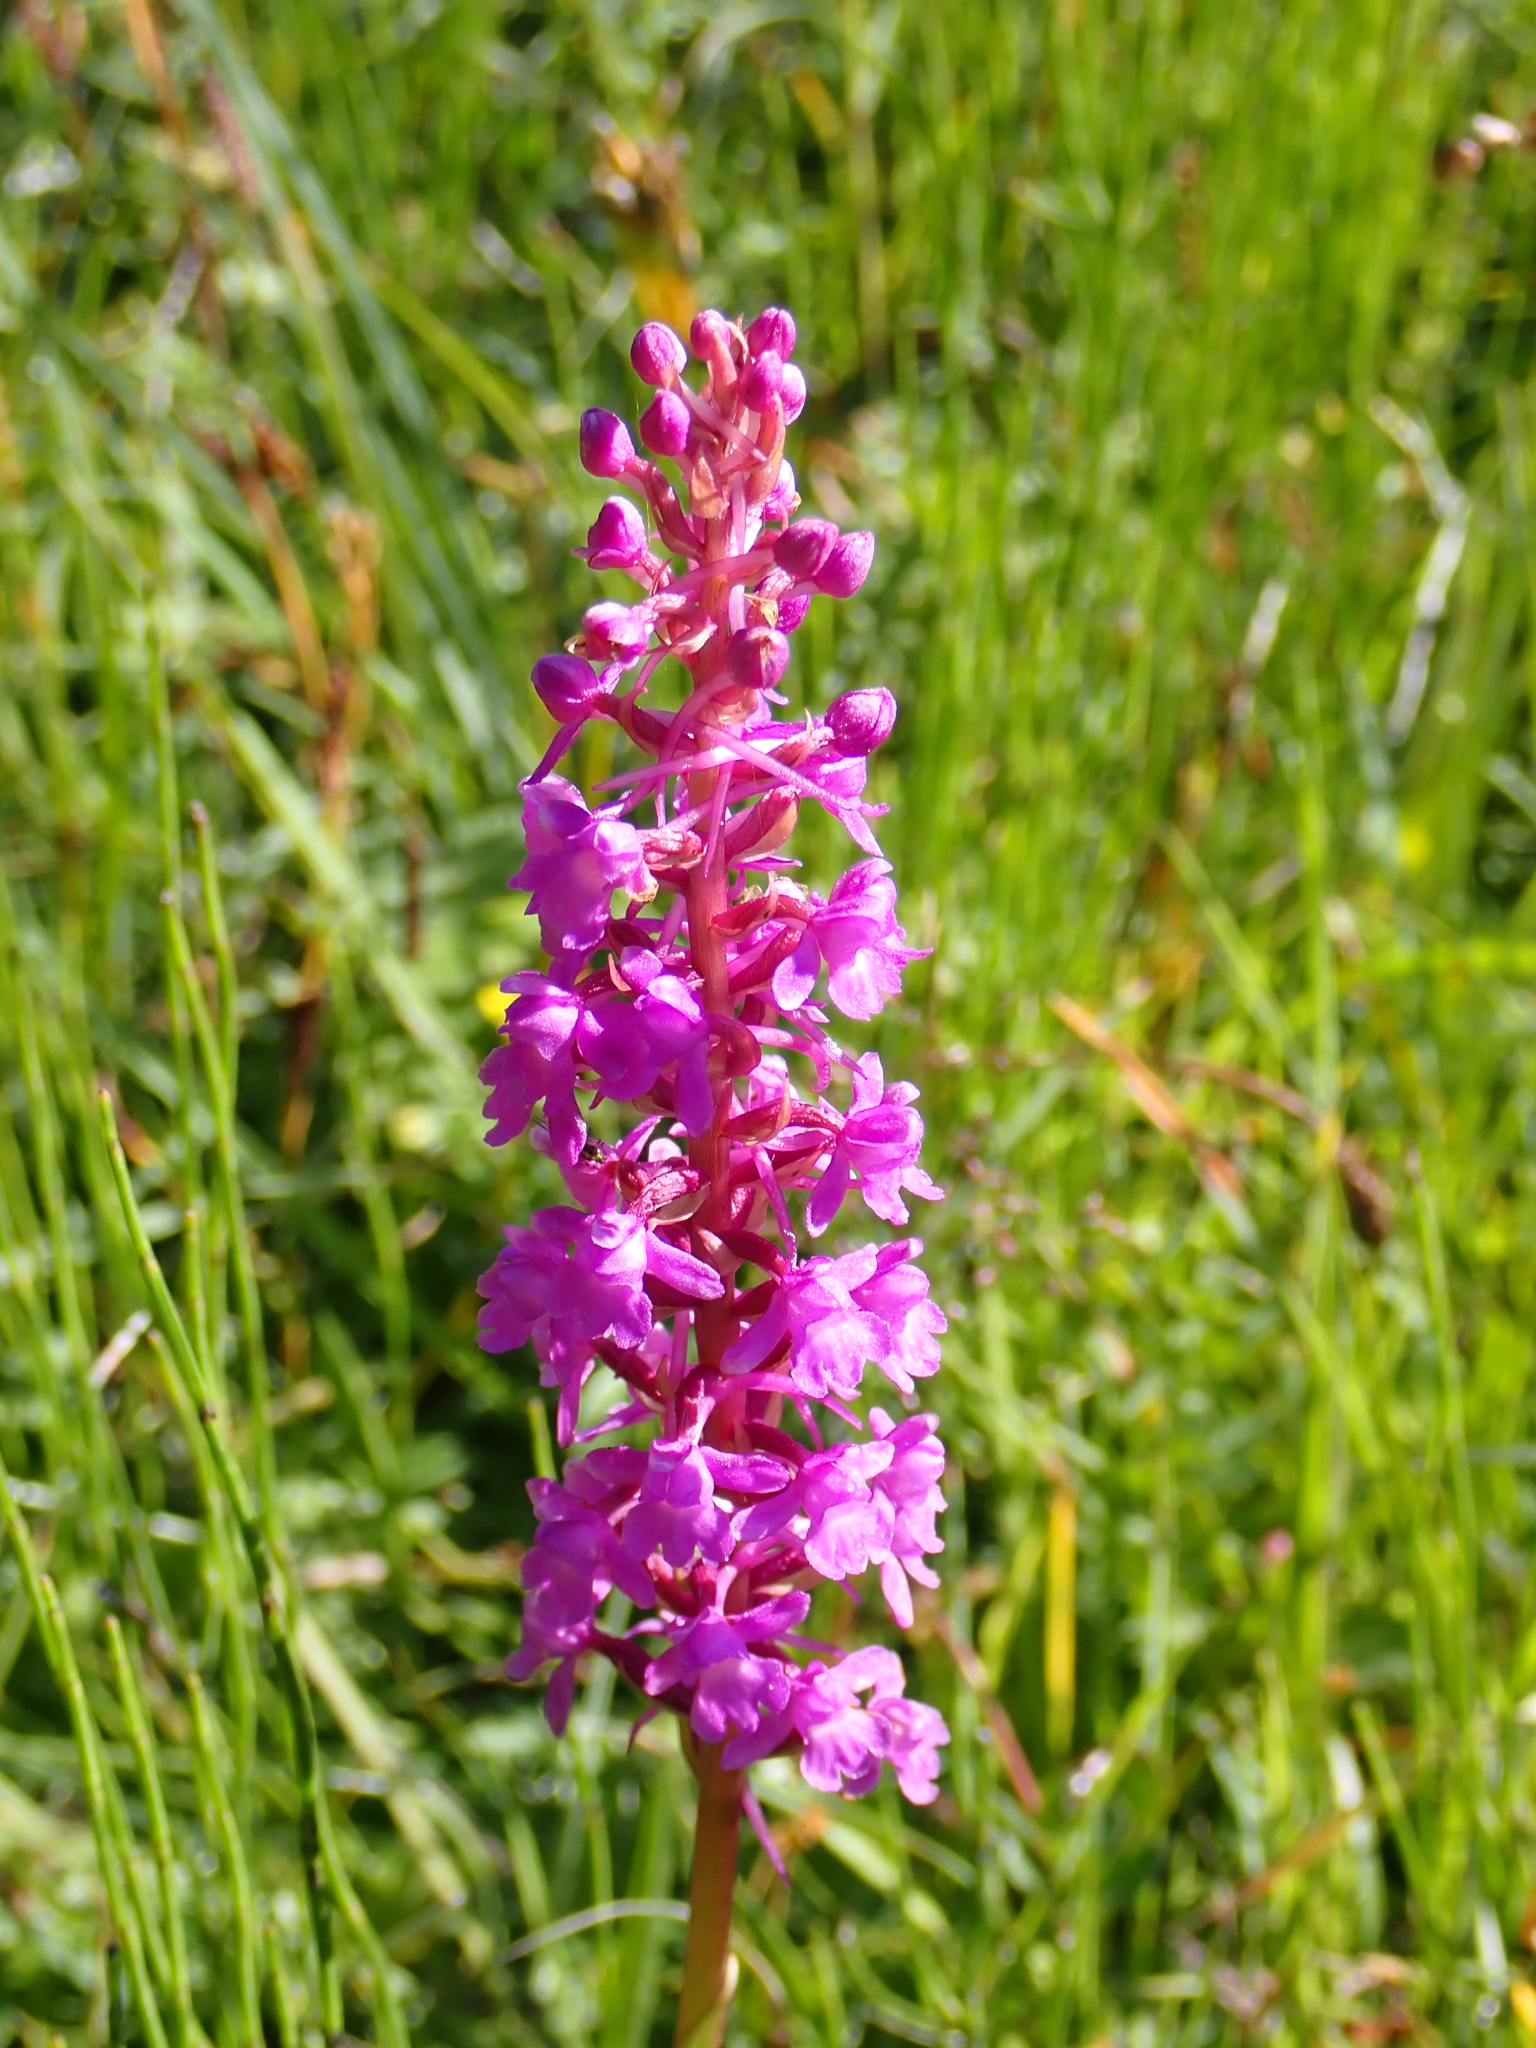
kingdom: Plantae
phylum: Tracheophyta
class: Liliopsida
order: Asparagales
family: Orchidaceae
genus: Gymnadenia
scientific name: Gymnadenia conopsea
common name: Fragrant orchid
